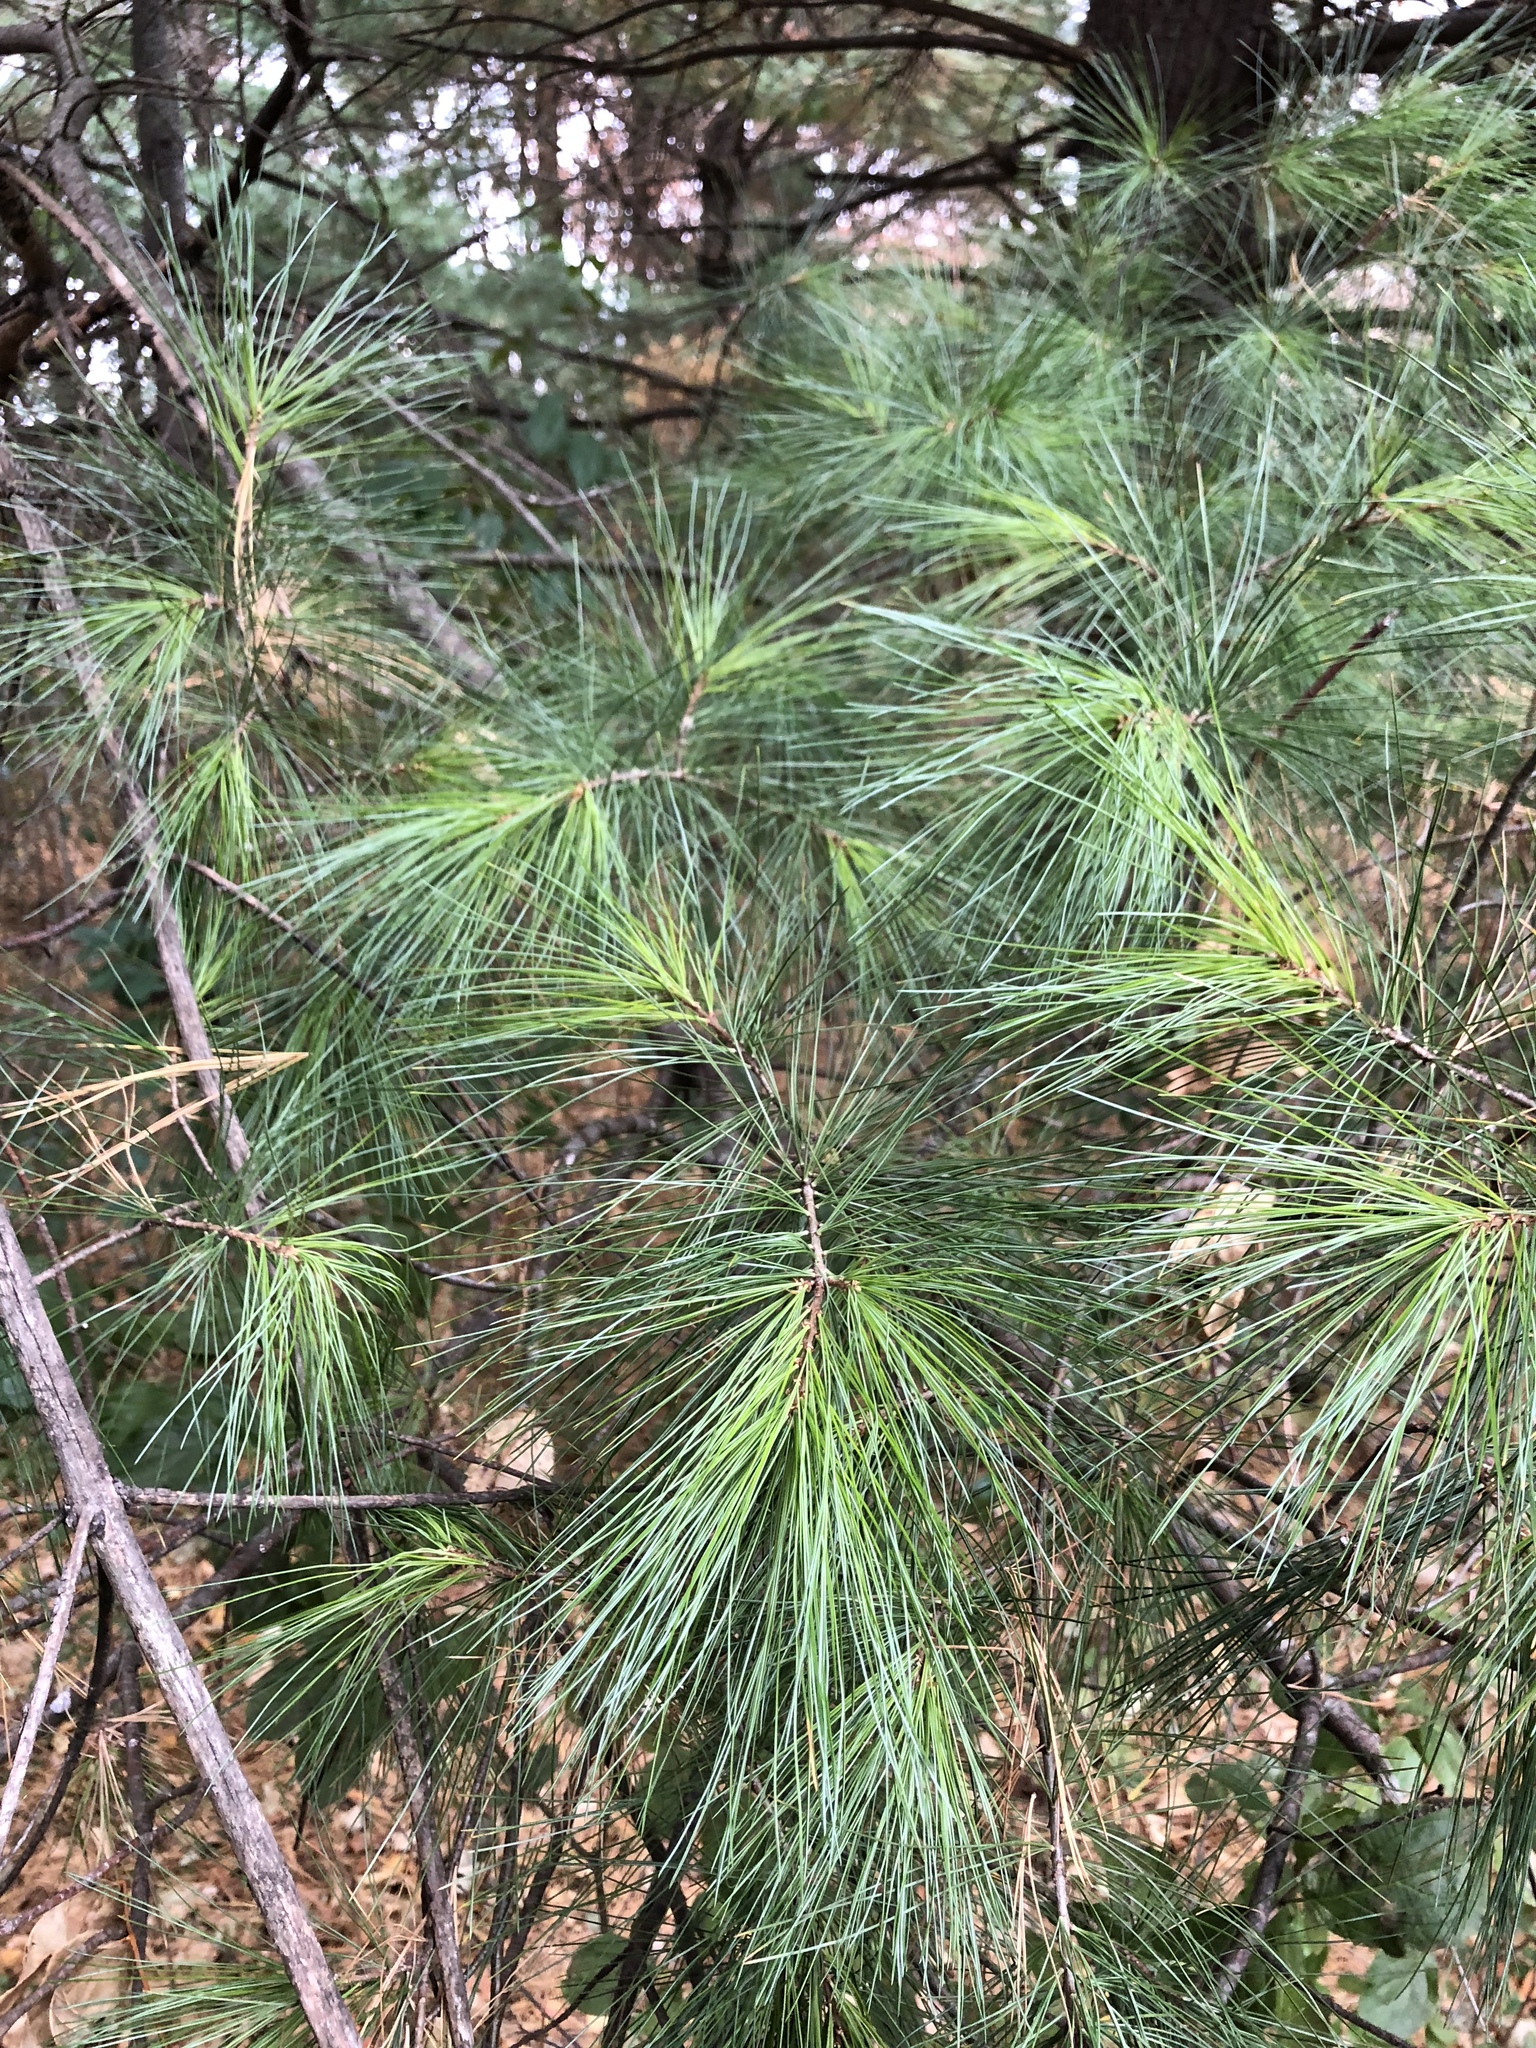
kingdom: Plantae
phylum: Tracheophyta
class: Pinopsida
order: Pinales
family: Pinaceae
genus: Pinus
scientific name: Pinus strobus
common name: Weymouth pine
